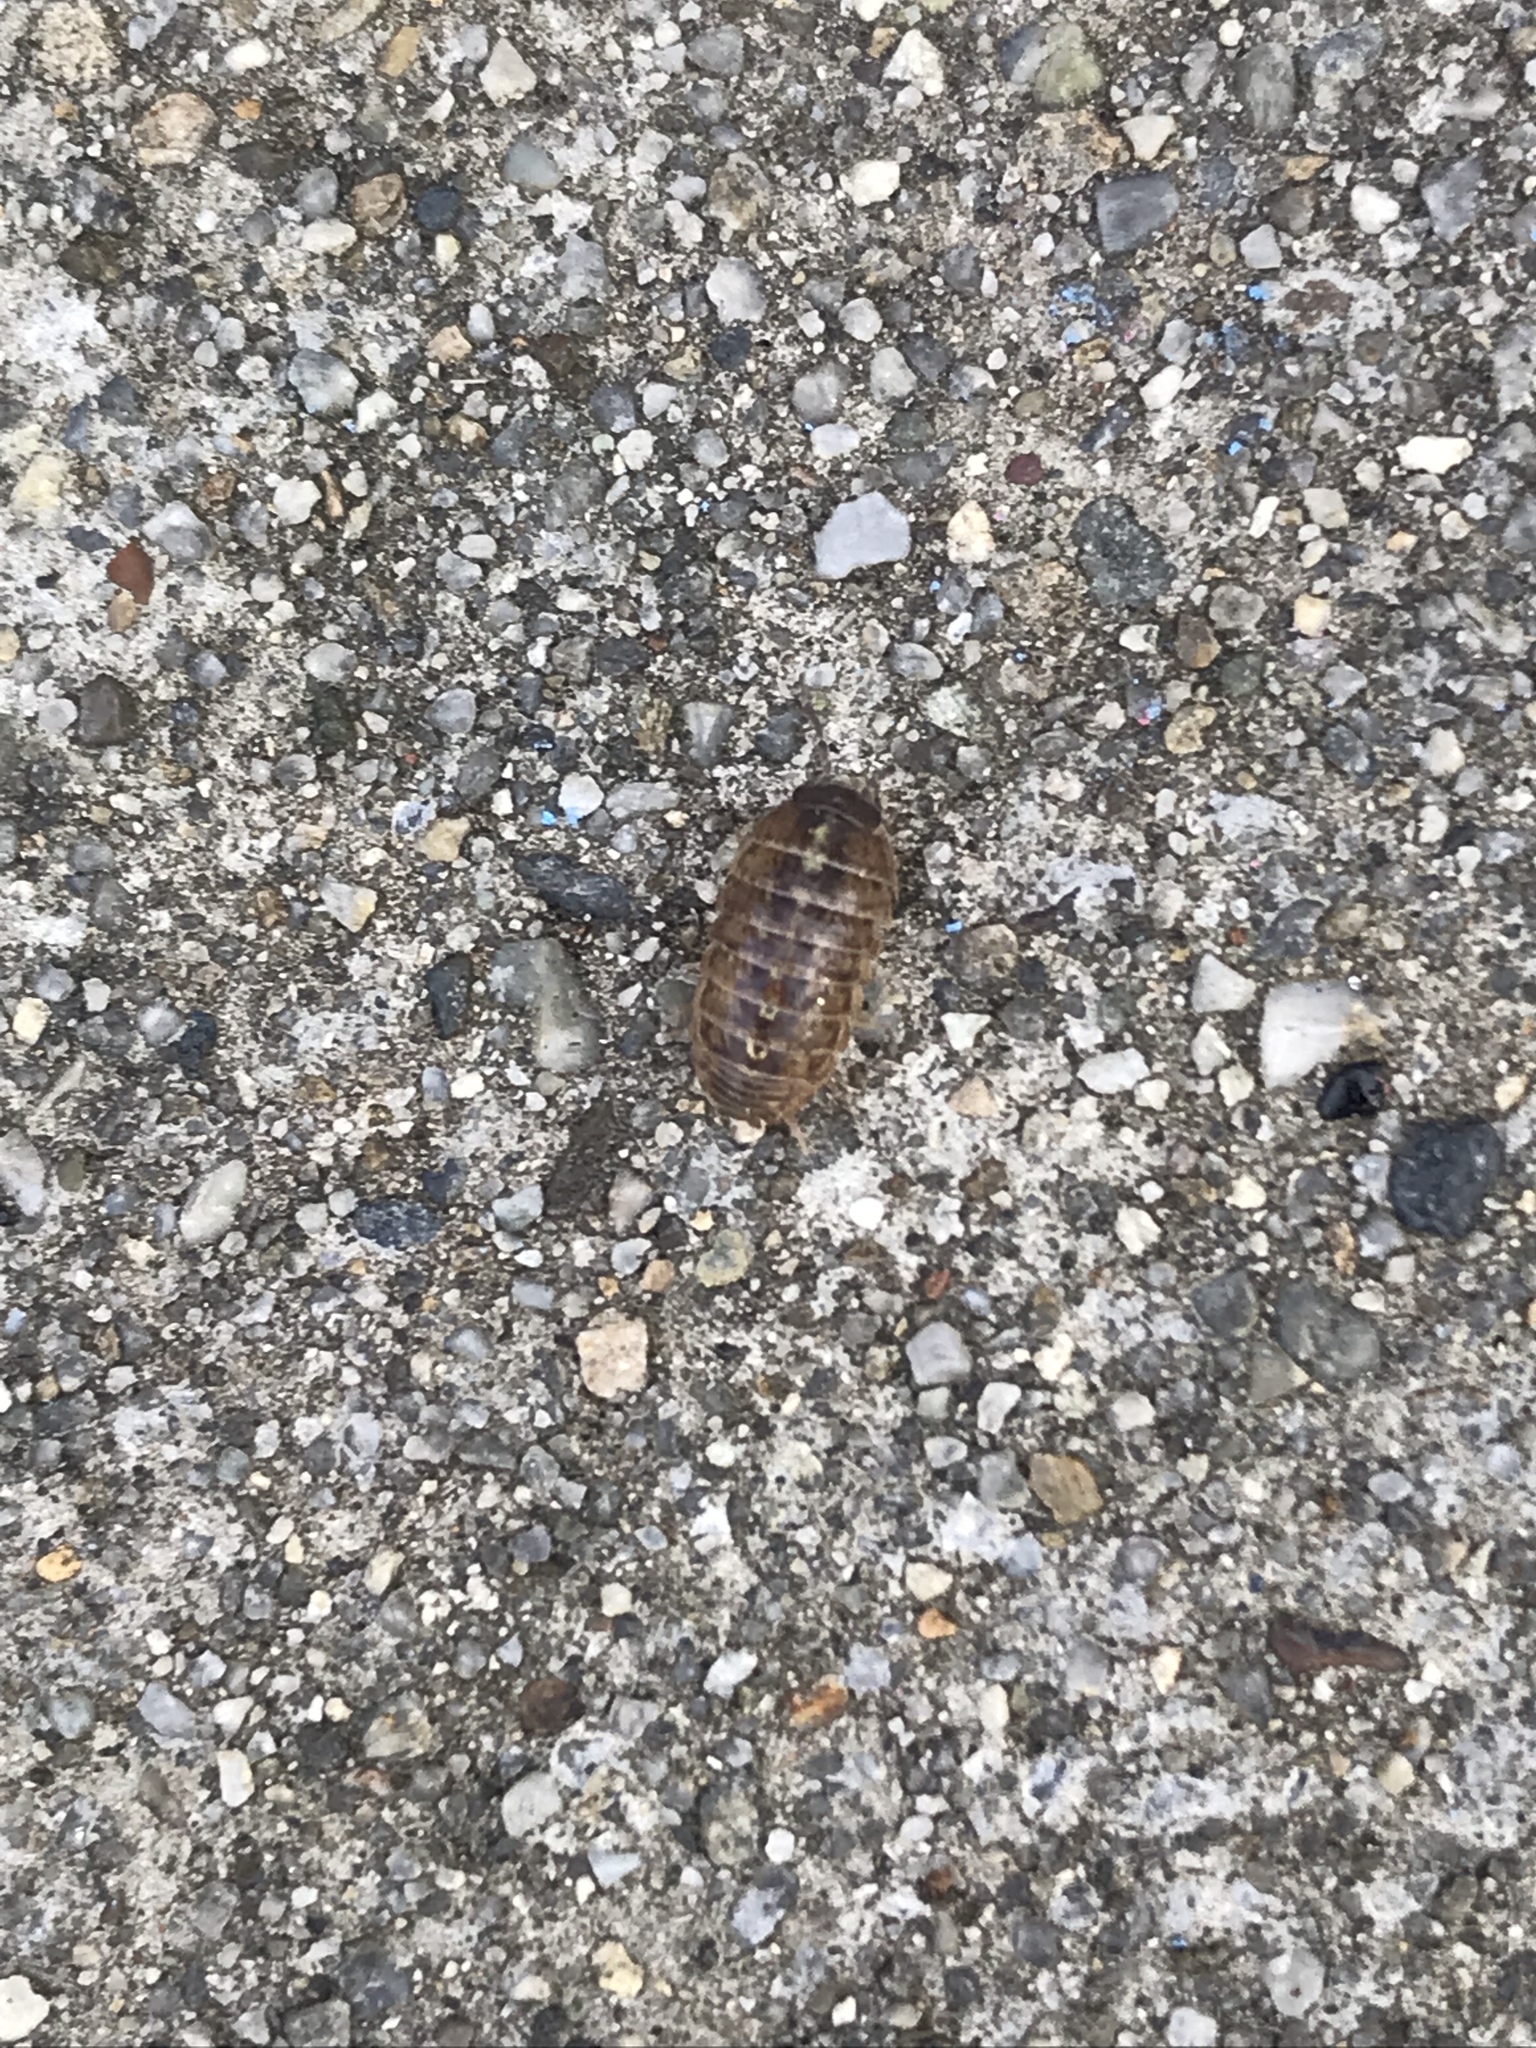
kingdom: Animalia
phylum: Arthropoda
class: Malacostraca
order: Isopoda
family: Armadillidiidae
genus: Armadillidium
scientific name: Armadillidium vulgare
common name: Common pill woodlouse
